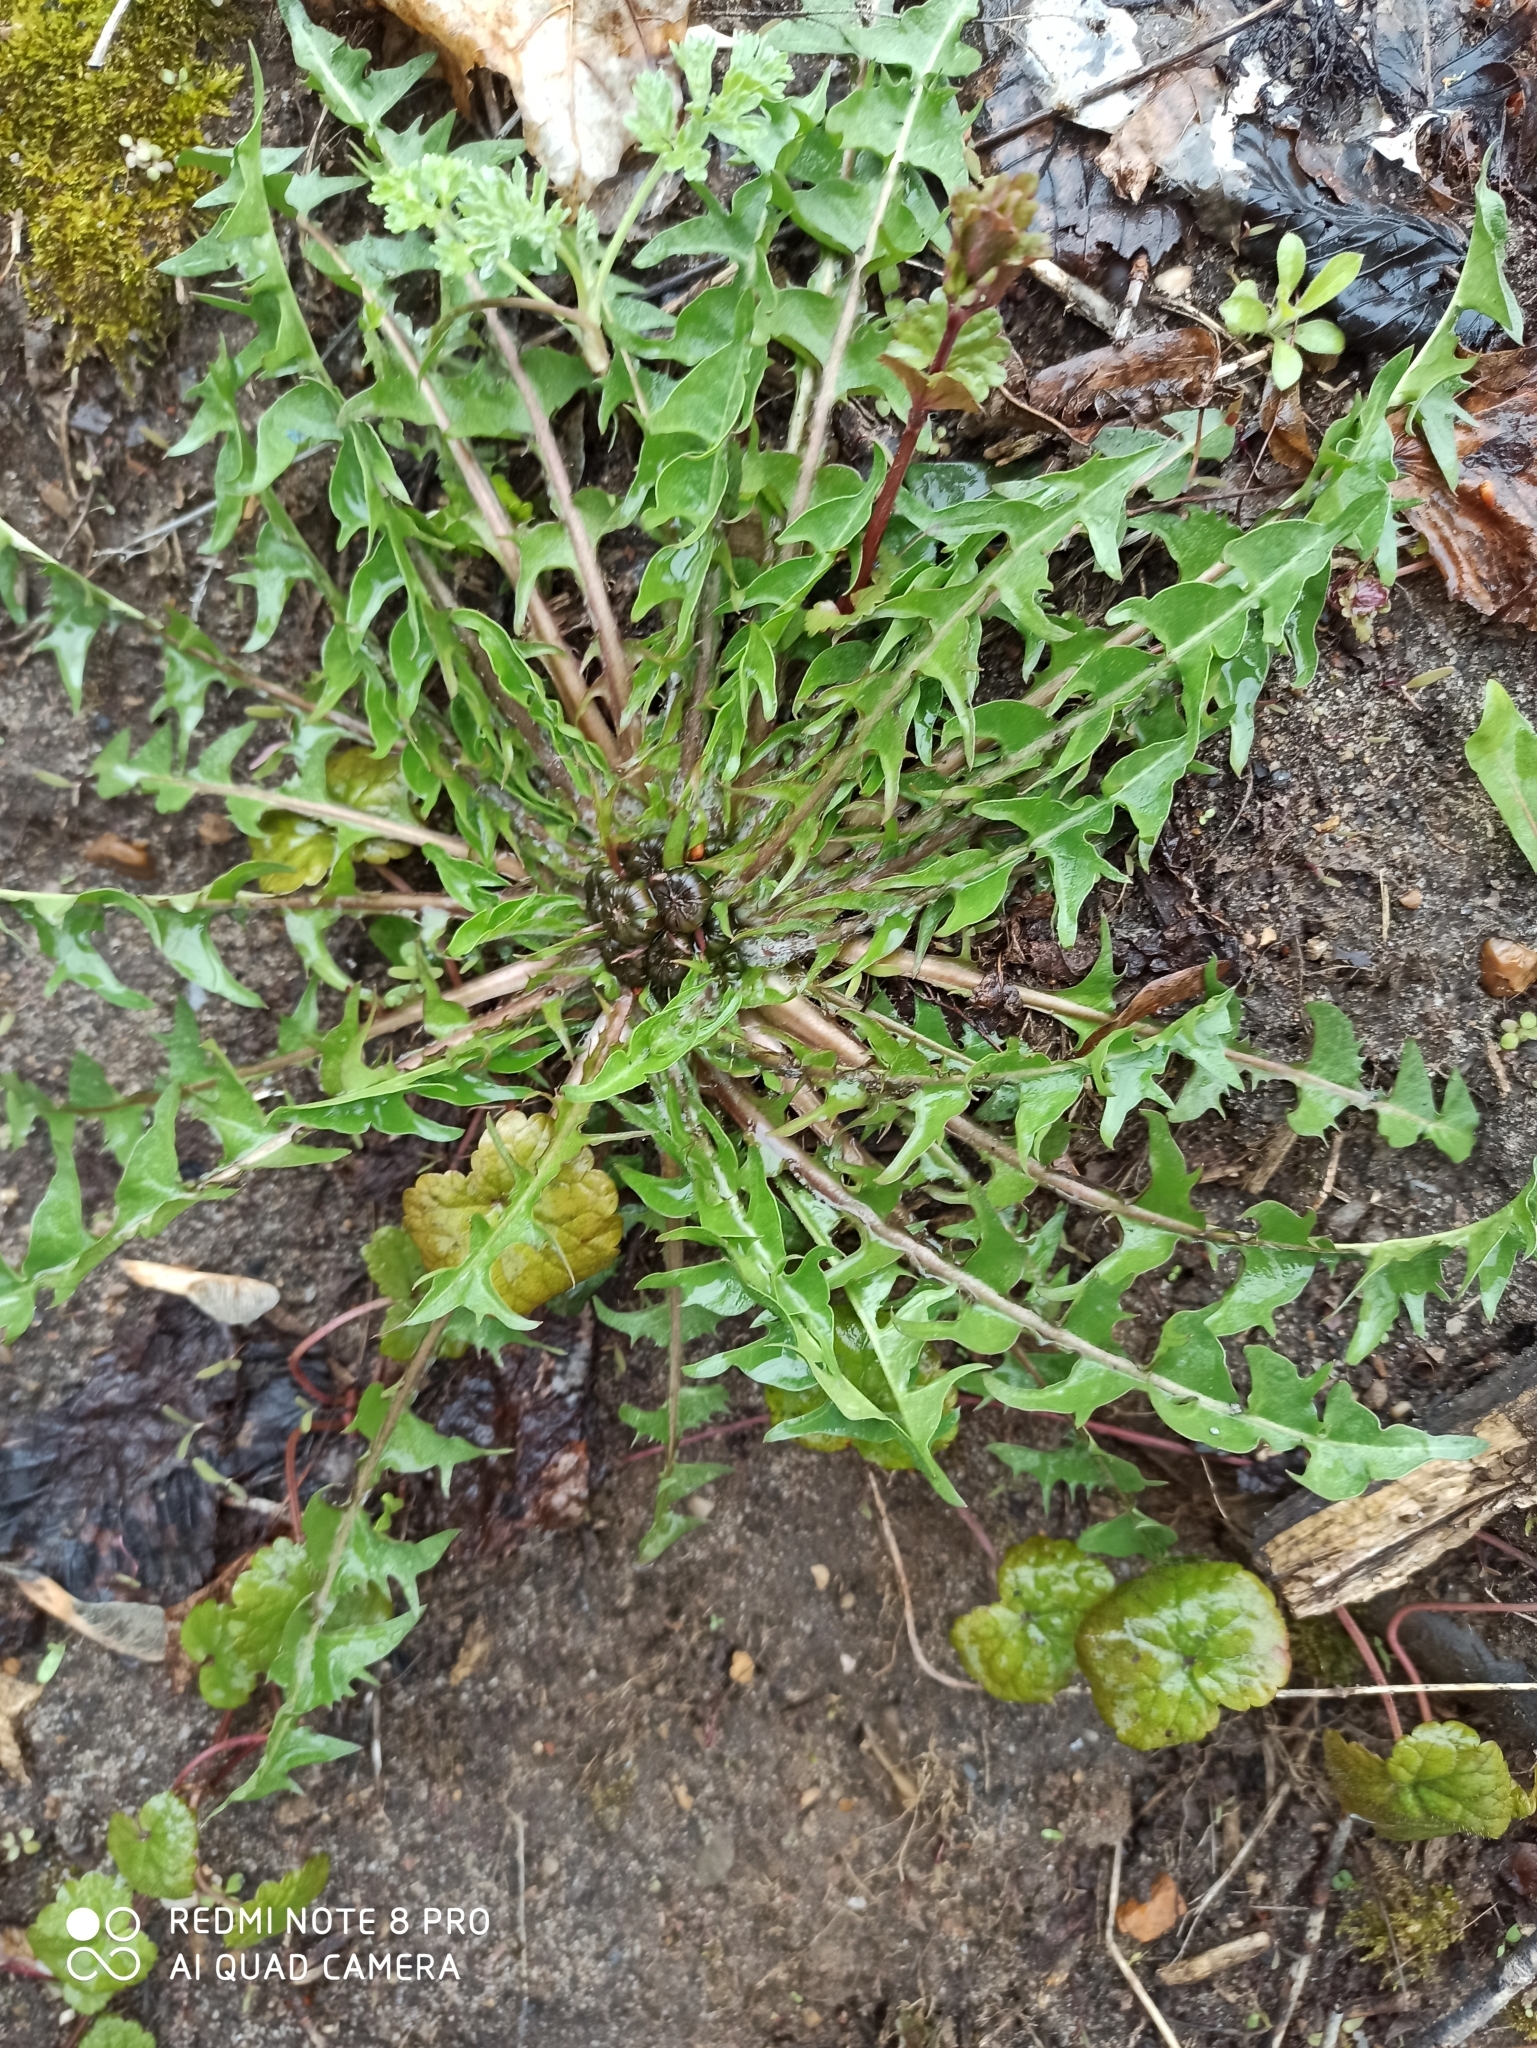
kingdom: Plantae
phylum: Tracheophyta
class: Magnoliopsida
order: Asterales
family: Asteraceae
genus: Taraxacum
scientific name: Taraxacum officinale
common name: Common dandelion
